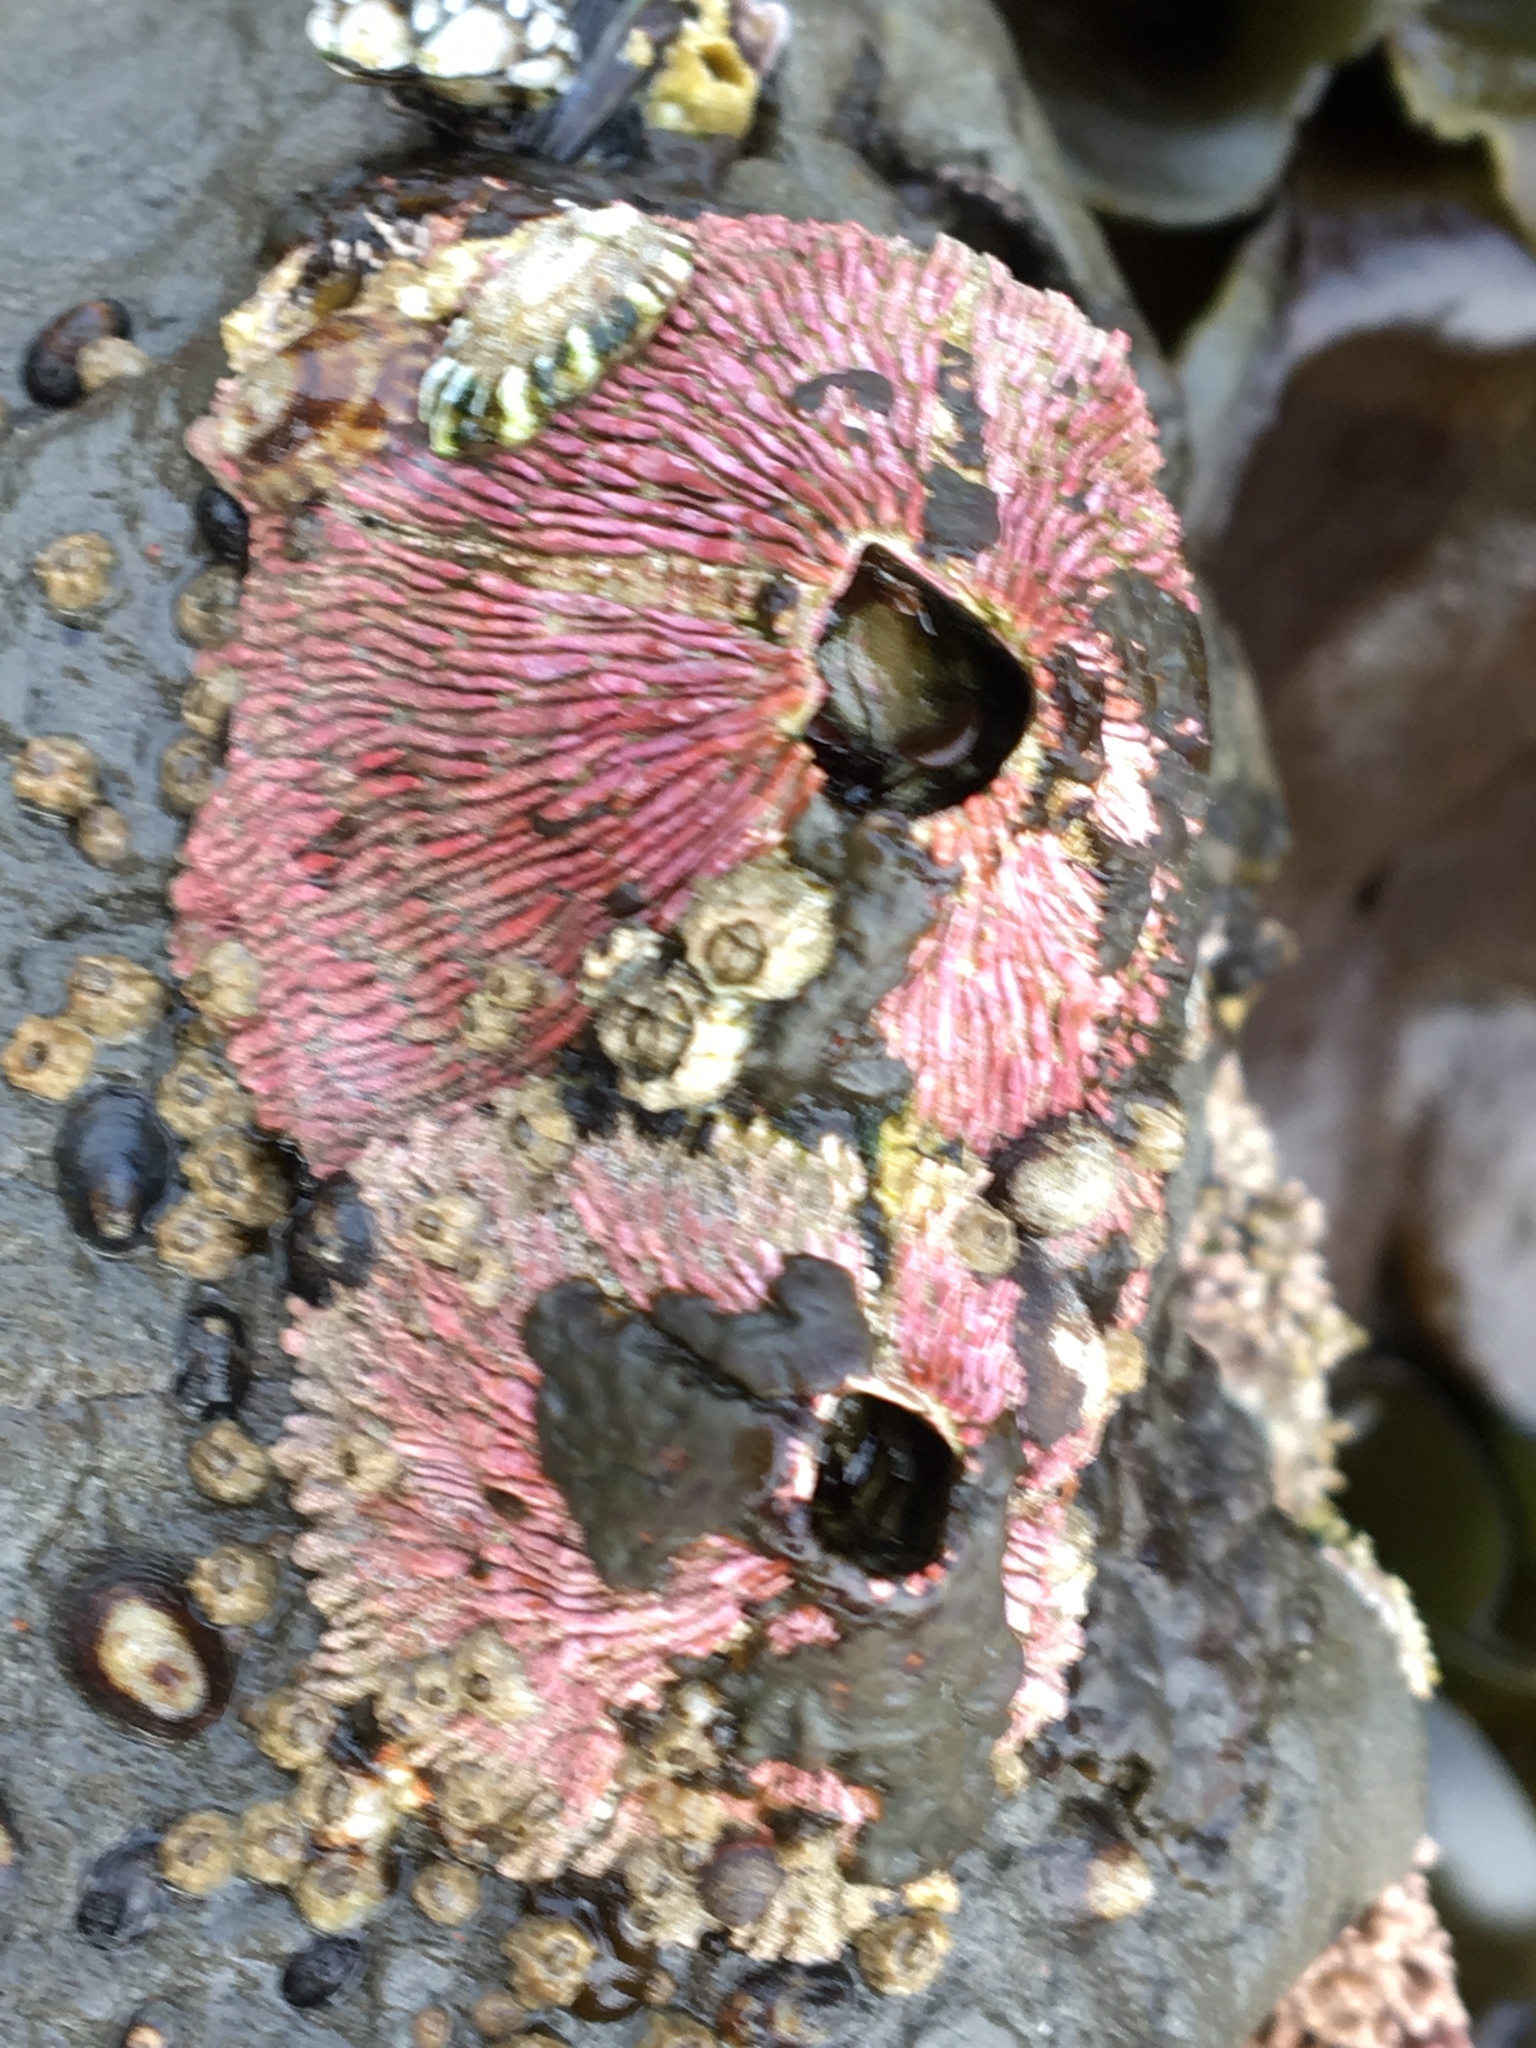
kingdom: Animalia
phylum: Arthropoda
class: Maxillopoda
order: Sessilia
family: Tetraclitidae
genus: Tetraclita
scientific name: Tetraclita rubescens
